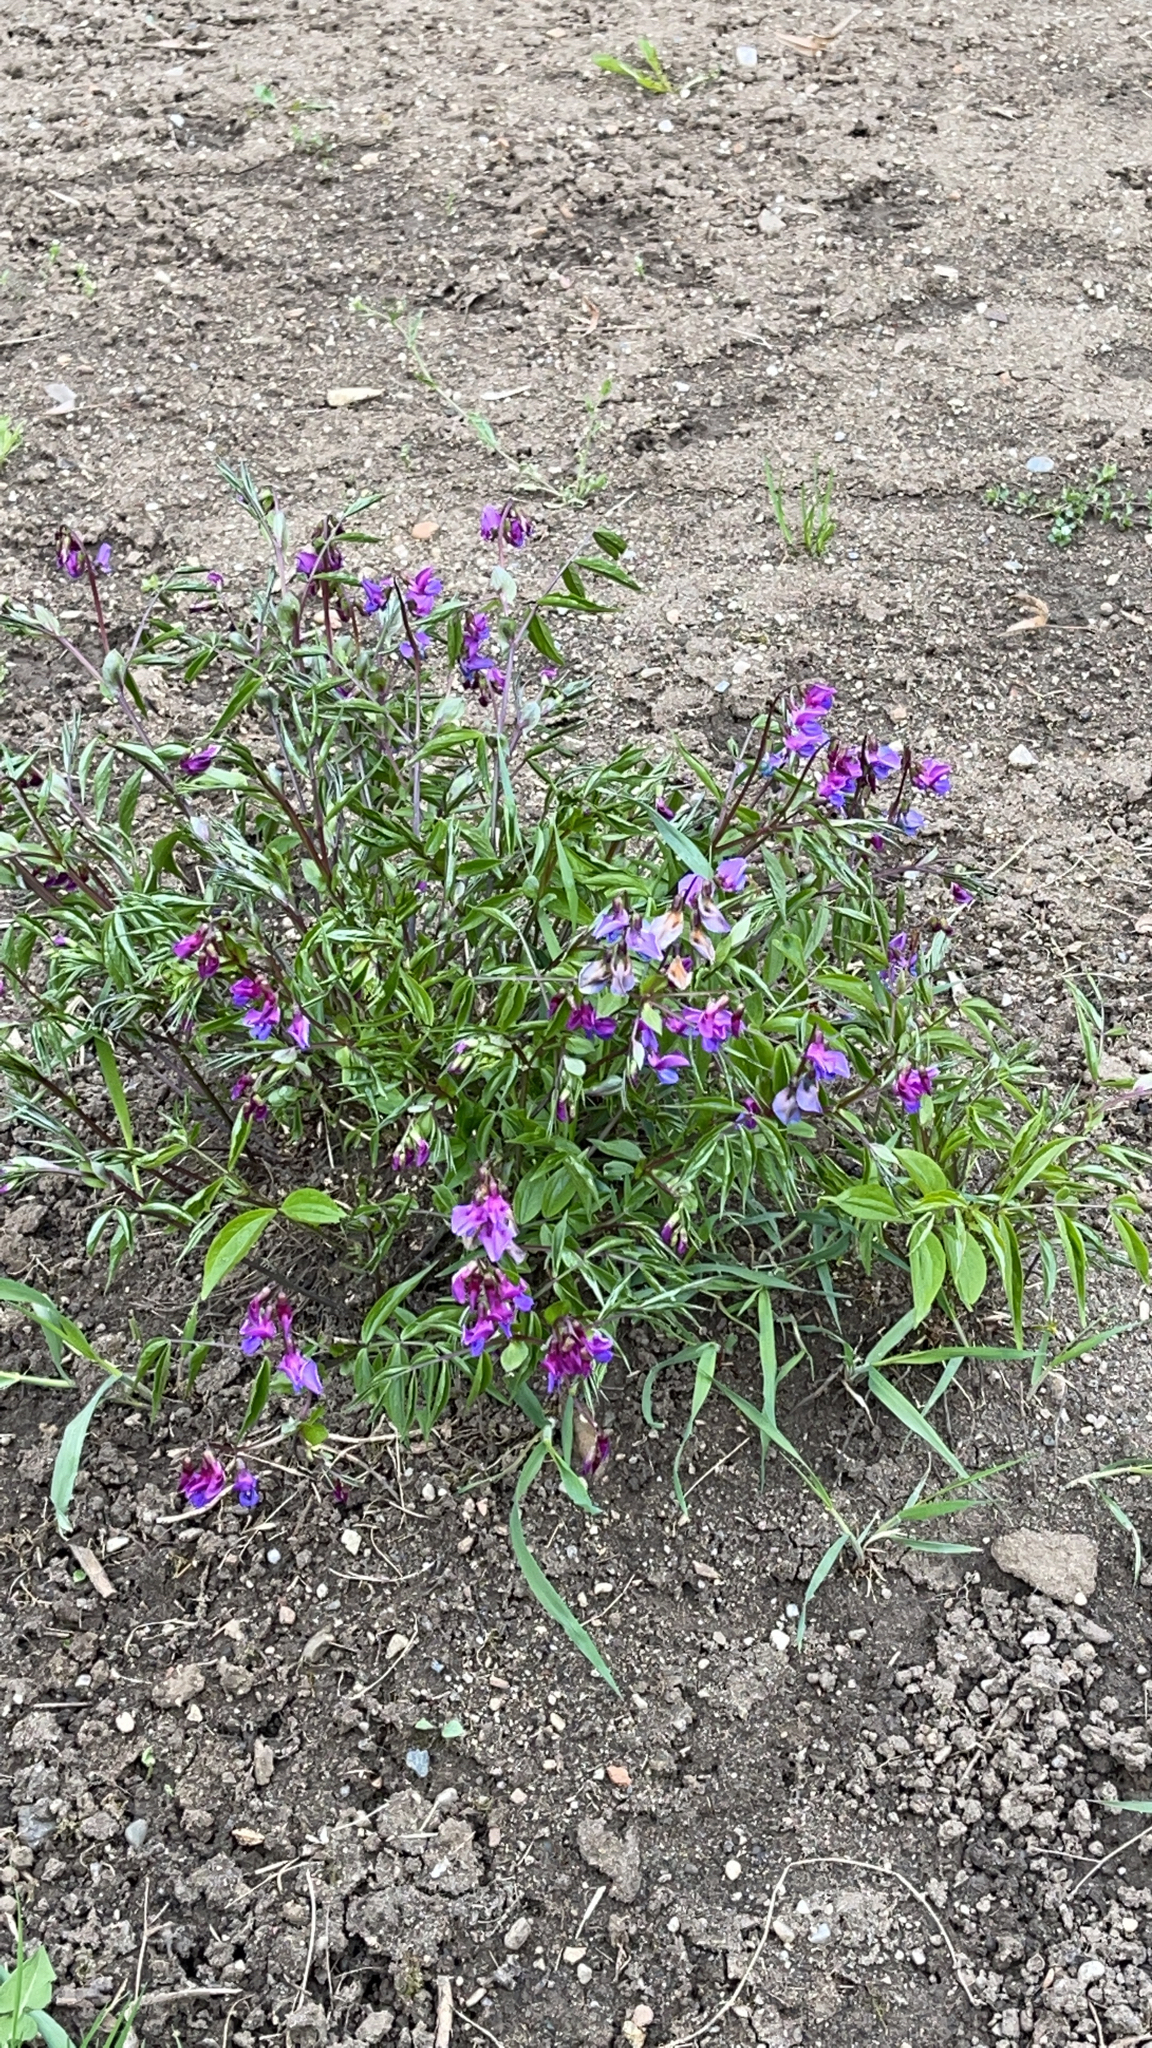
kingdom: Plantae
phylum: Tracheophyta
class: Magnoliopsida
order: Fabales
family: Fabaceae
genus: Lathyrus
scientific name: Lathyrus vernus
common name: Spring pea
